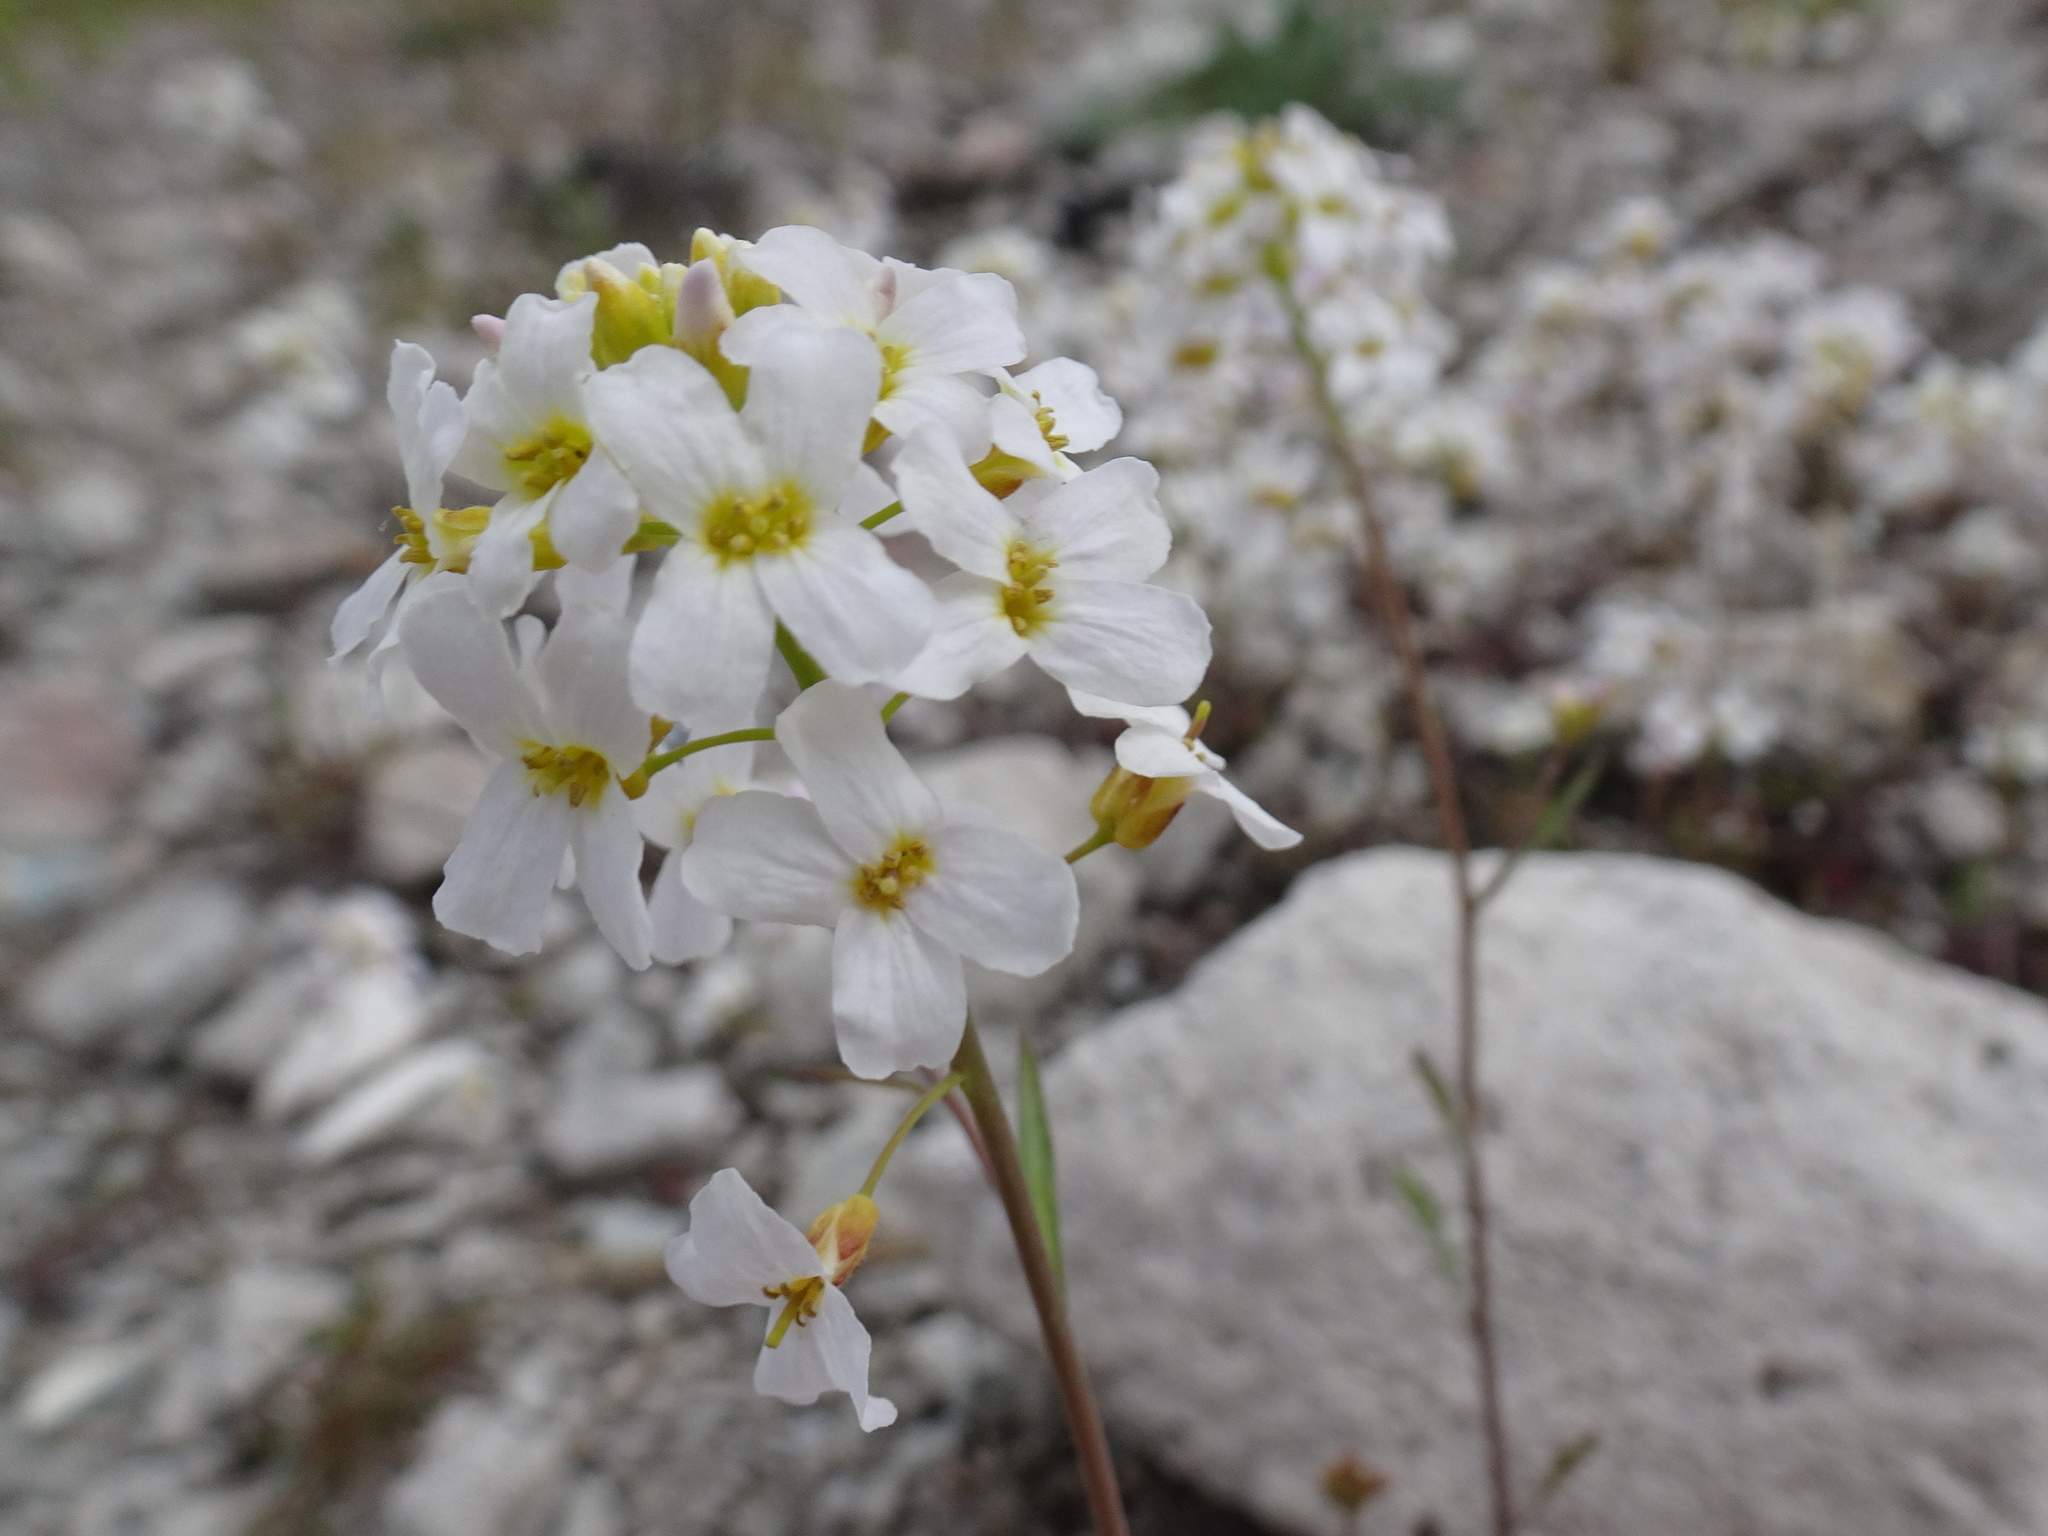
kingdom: Plantae
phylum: Tracheophyta
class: Magnoliopsida
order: Brassicales
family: Brassicaceae
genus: Arabidopsis
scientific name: Arabidopsis arenosa
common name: Sand rock-cress
